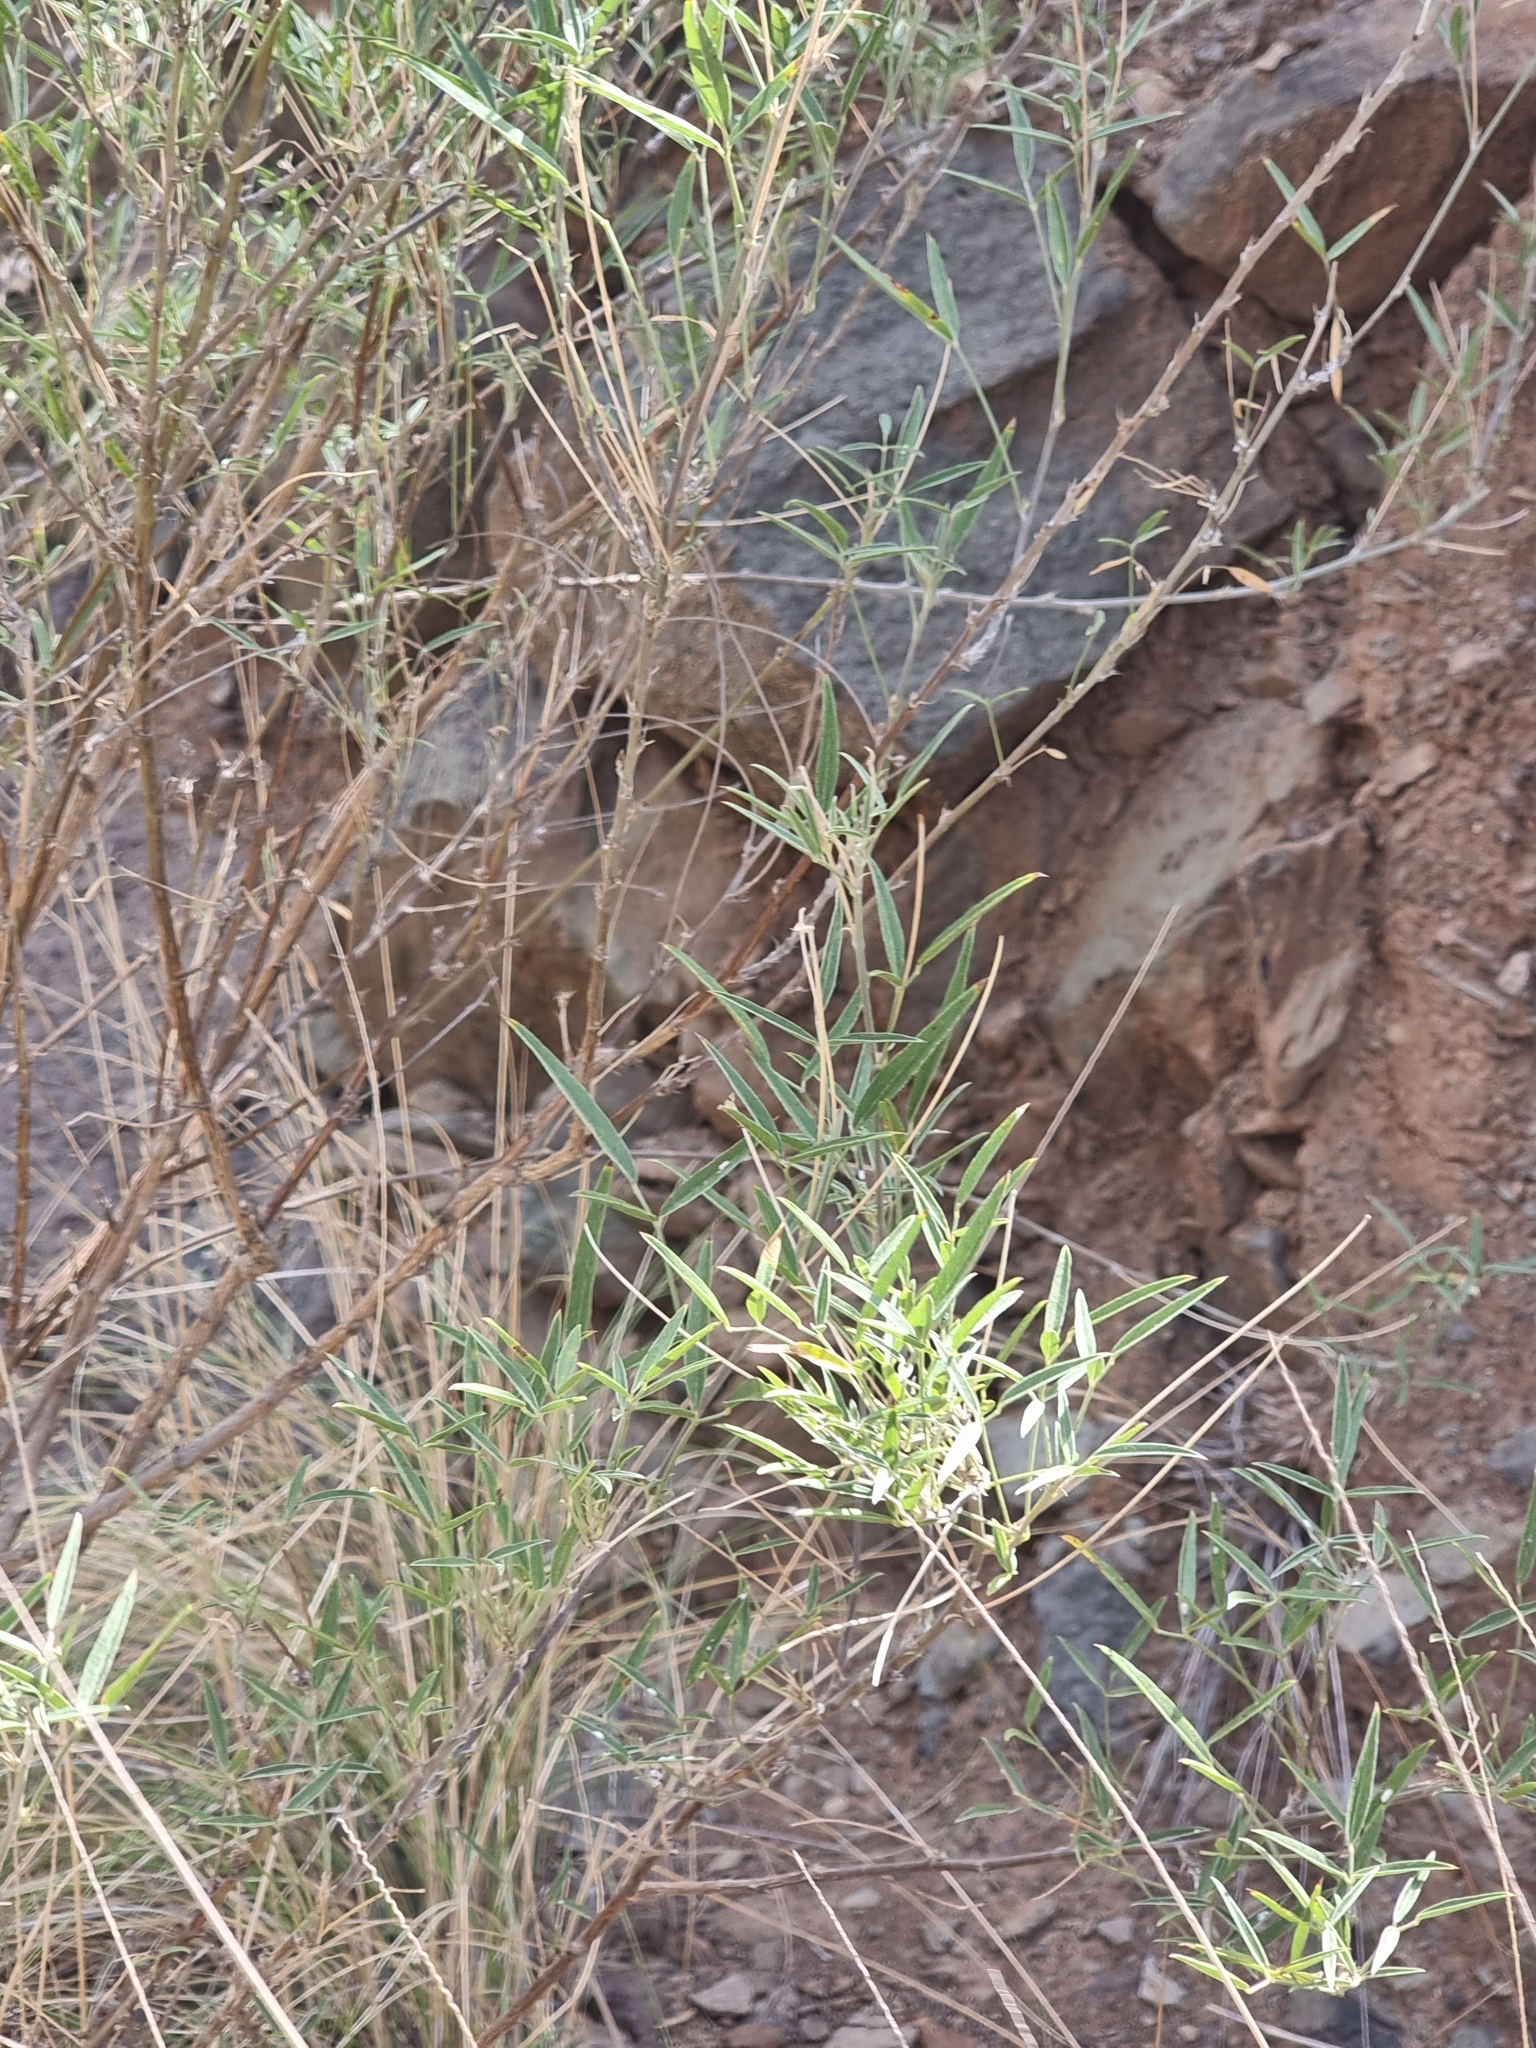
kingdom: Plantae
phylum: Tracheophyta
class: Magnoliopsida
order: Fabales
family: Fabaceae
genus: Bituminaria
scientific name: Bituminaria bituminosa
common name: Arabian pea
